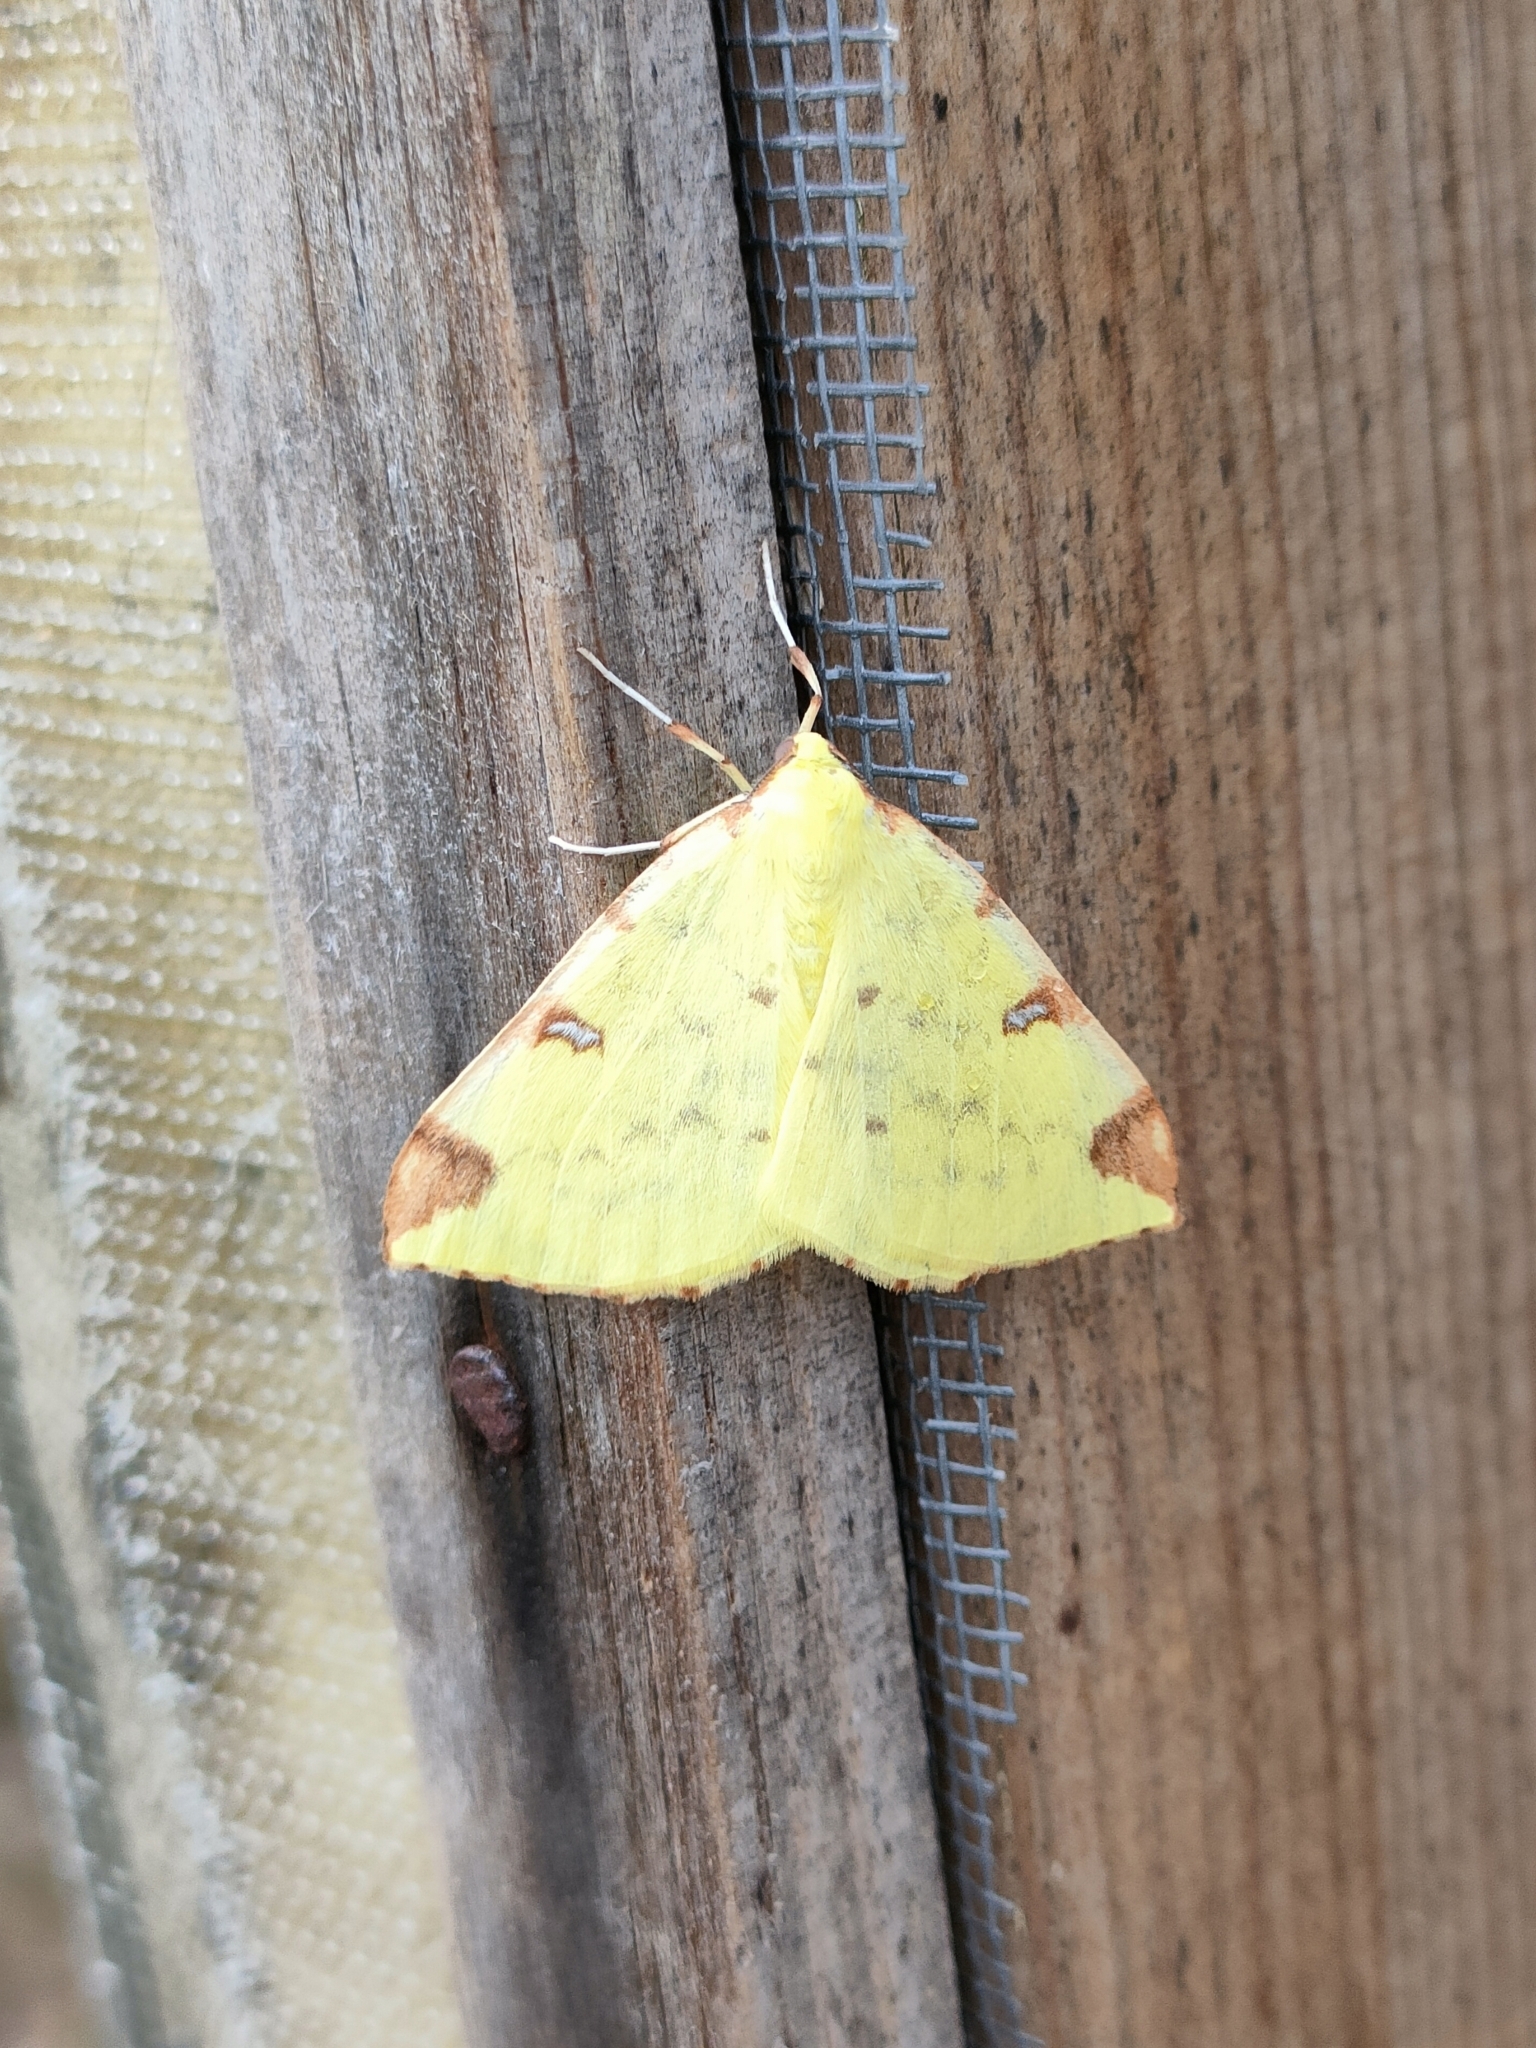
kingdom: Animalia
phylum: Arthropoda
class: Insecta
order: Lepidoptera
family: Geometridae
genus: Opisthograptis
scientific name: Opisthograptis luteolata
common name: Brimstone moth
